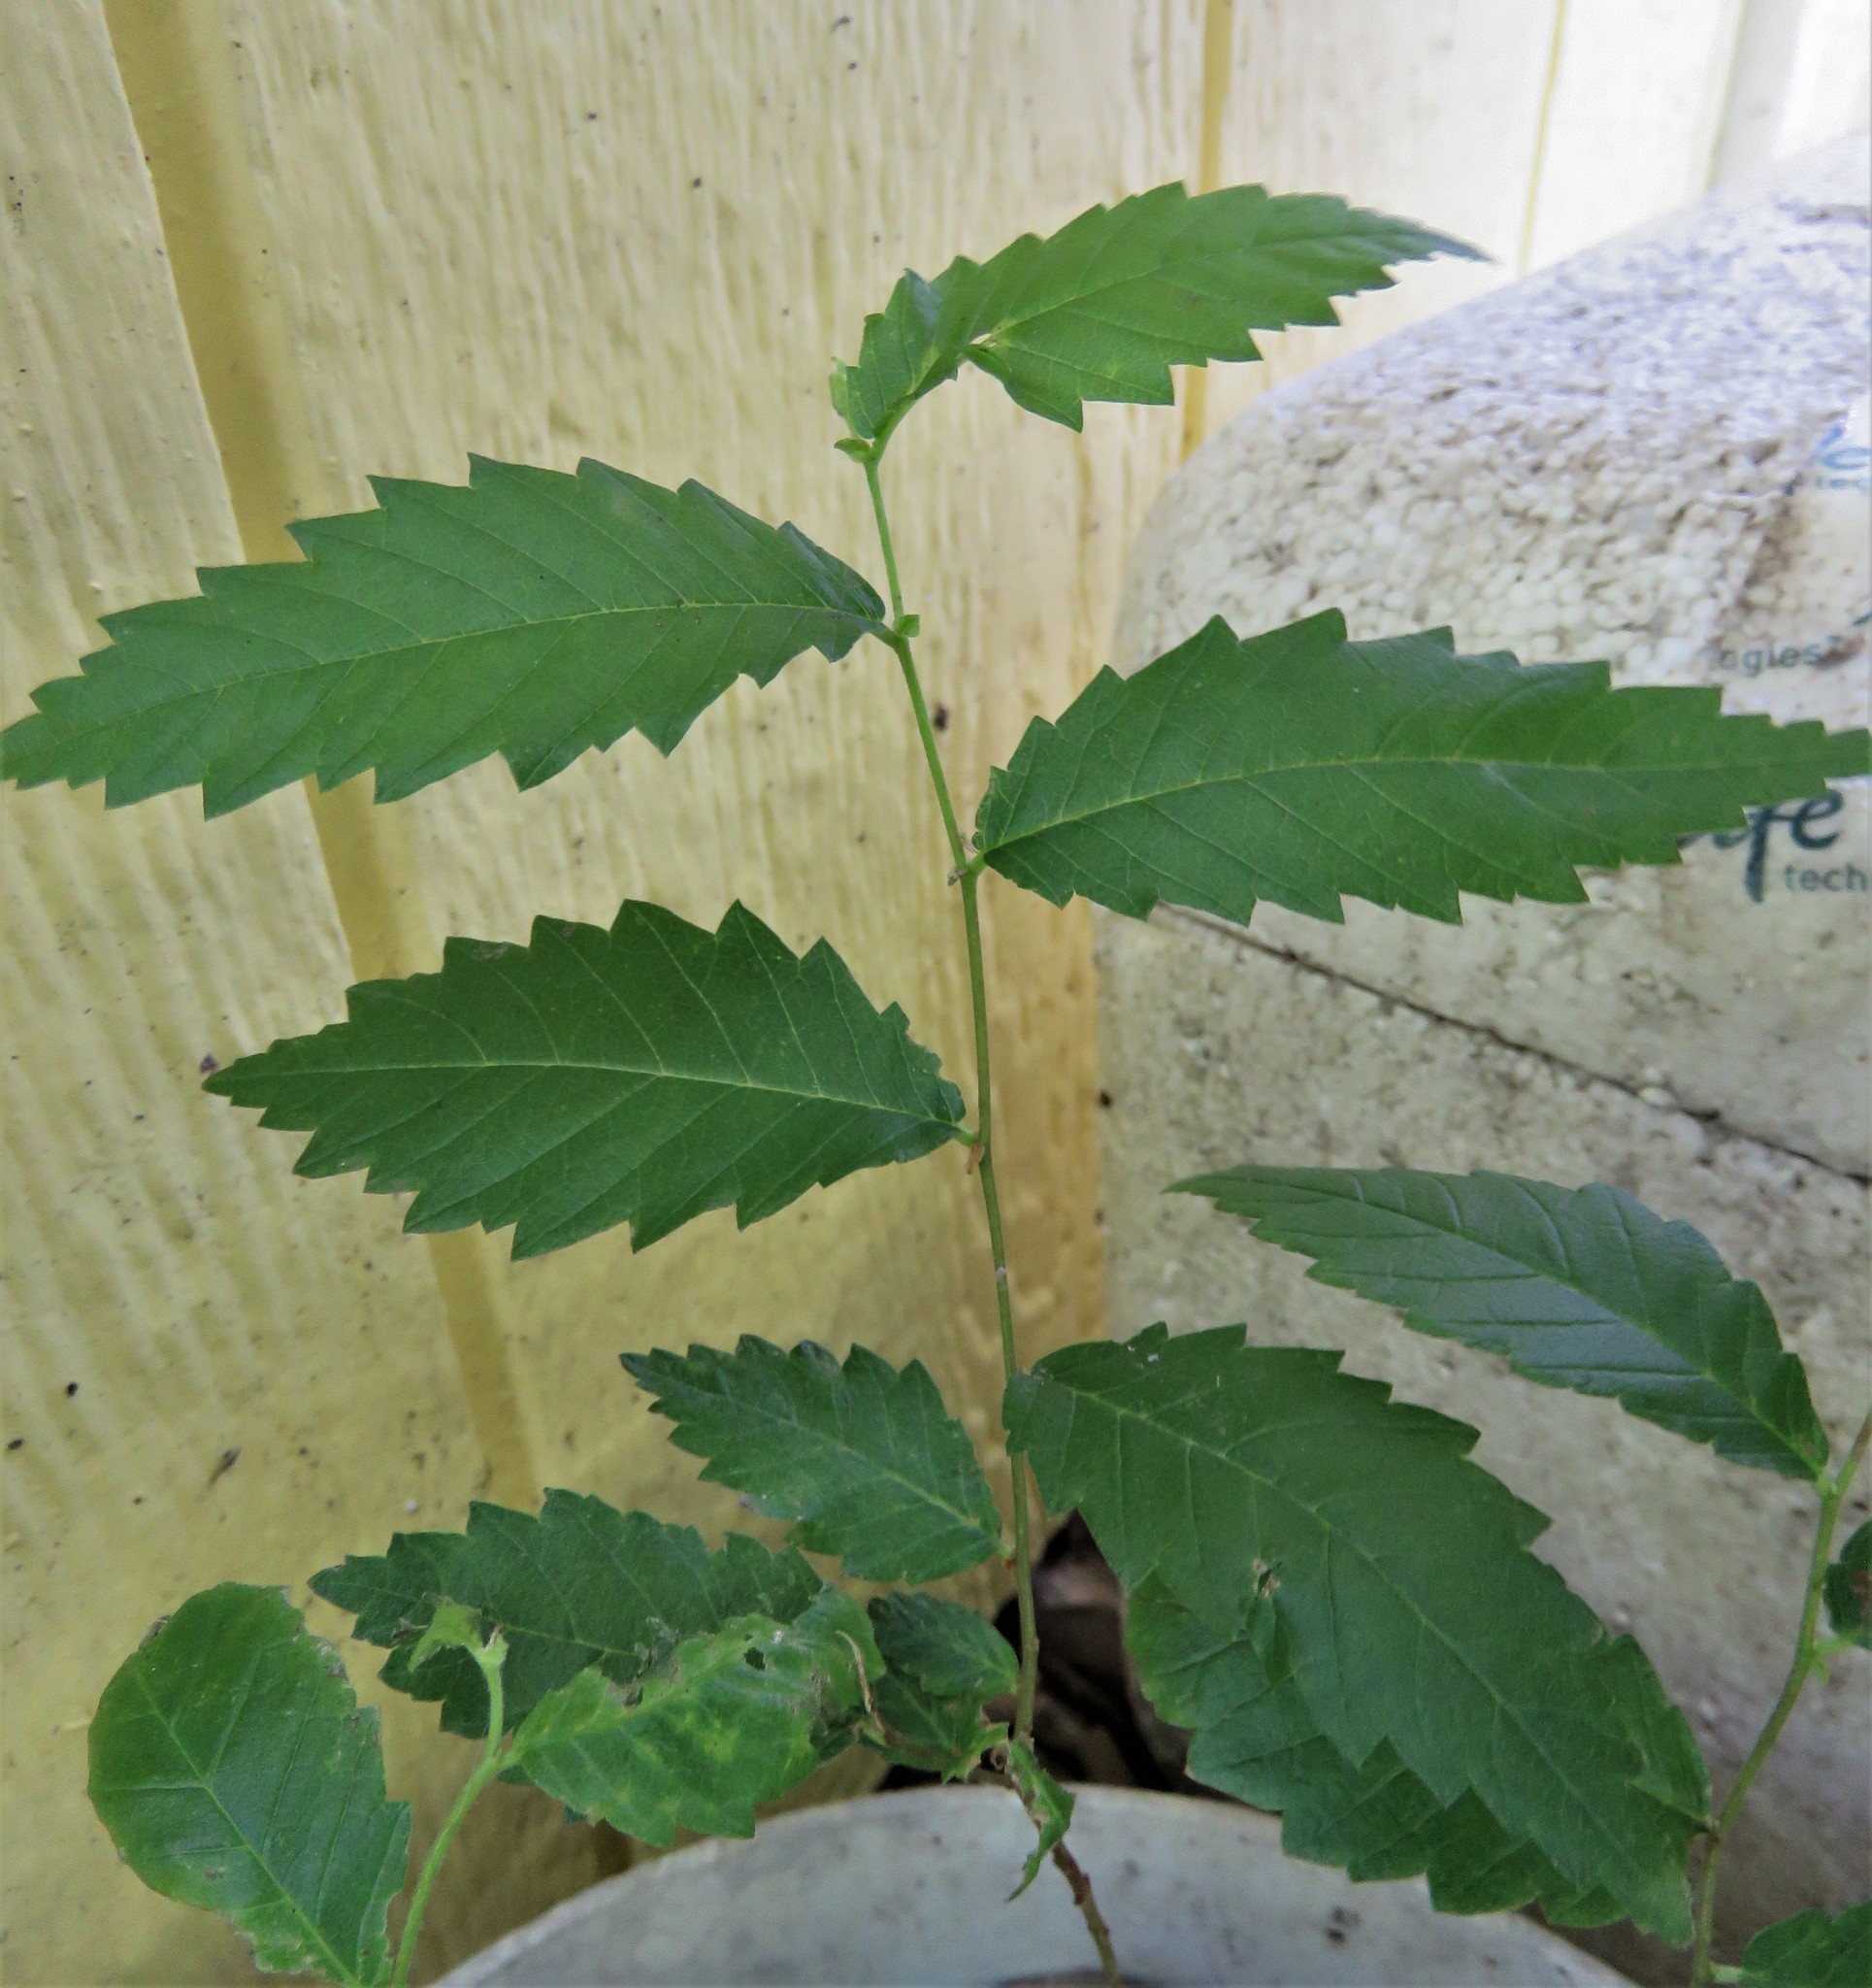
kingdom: Plantae
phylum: Tracheophyta
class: Magnoliopsida
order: Rosales
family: Ulmaceae
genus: Ulmus
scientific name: Ulmus americana
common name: American elm
